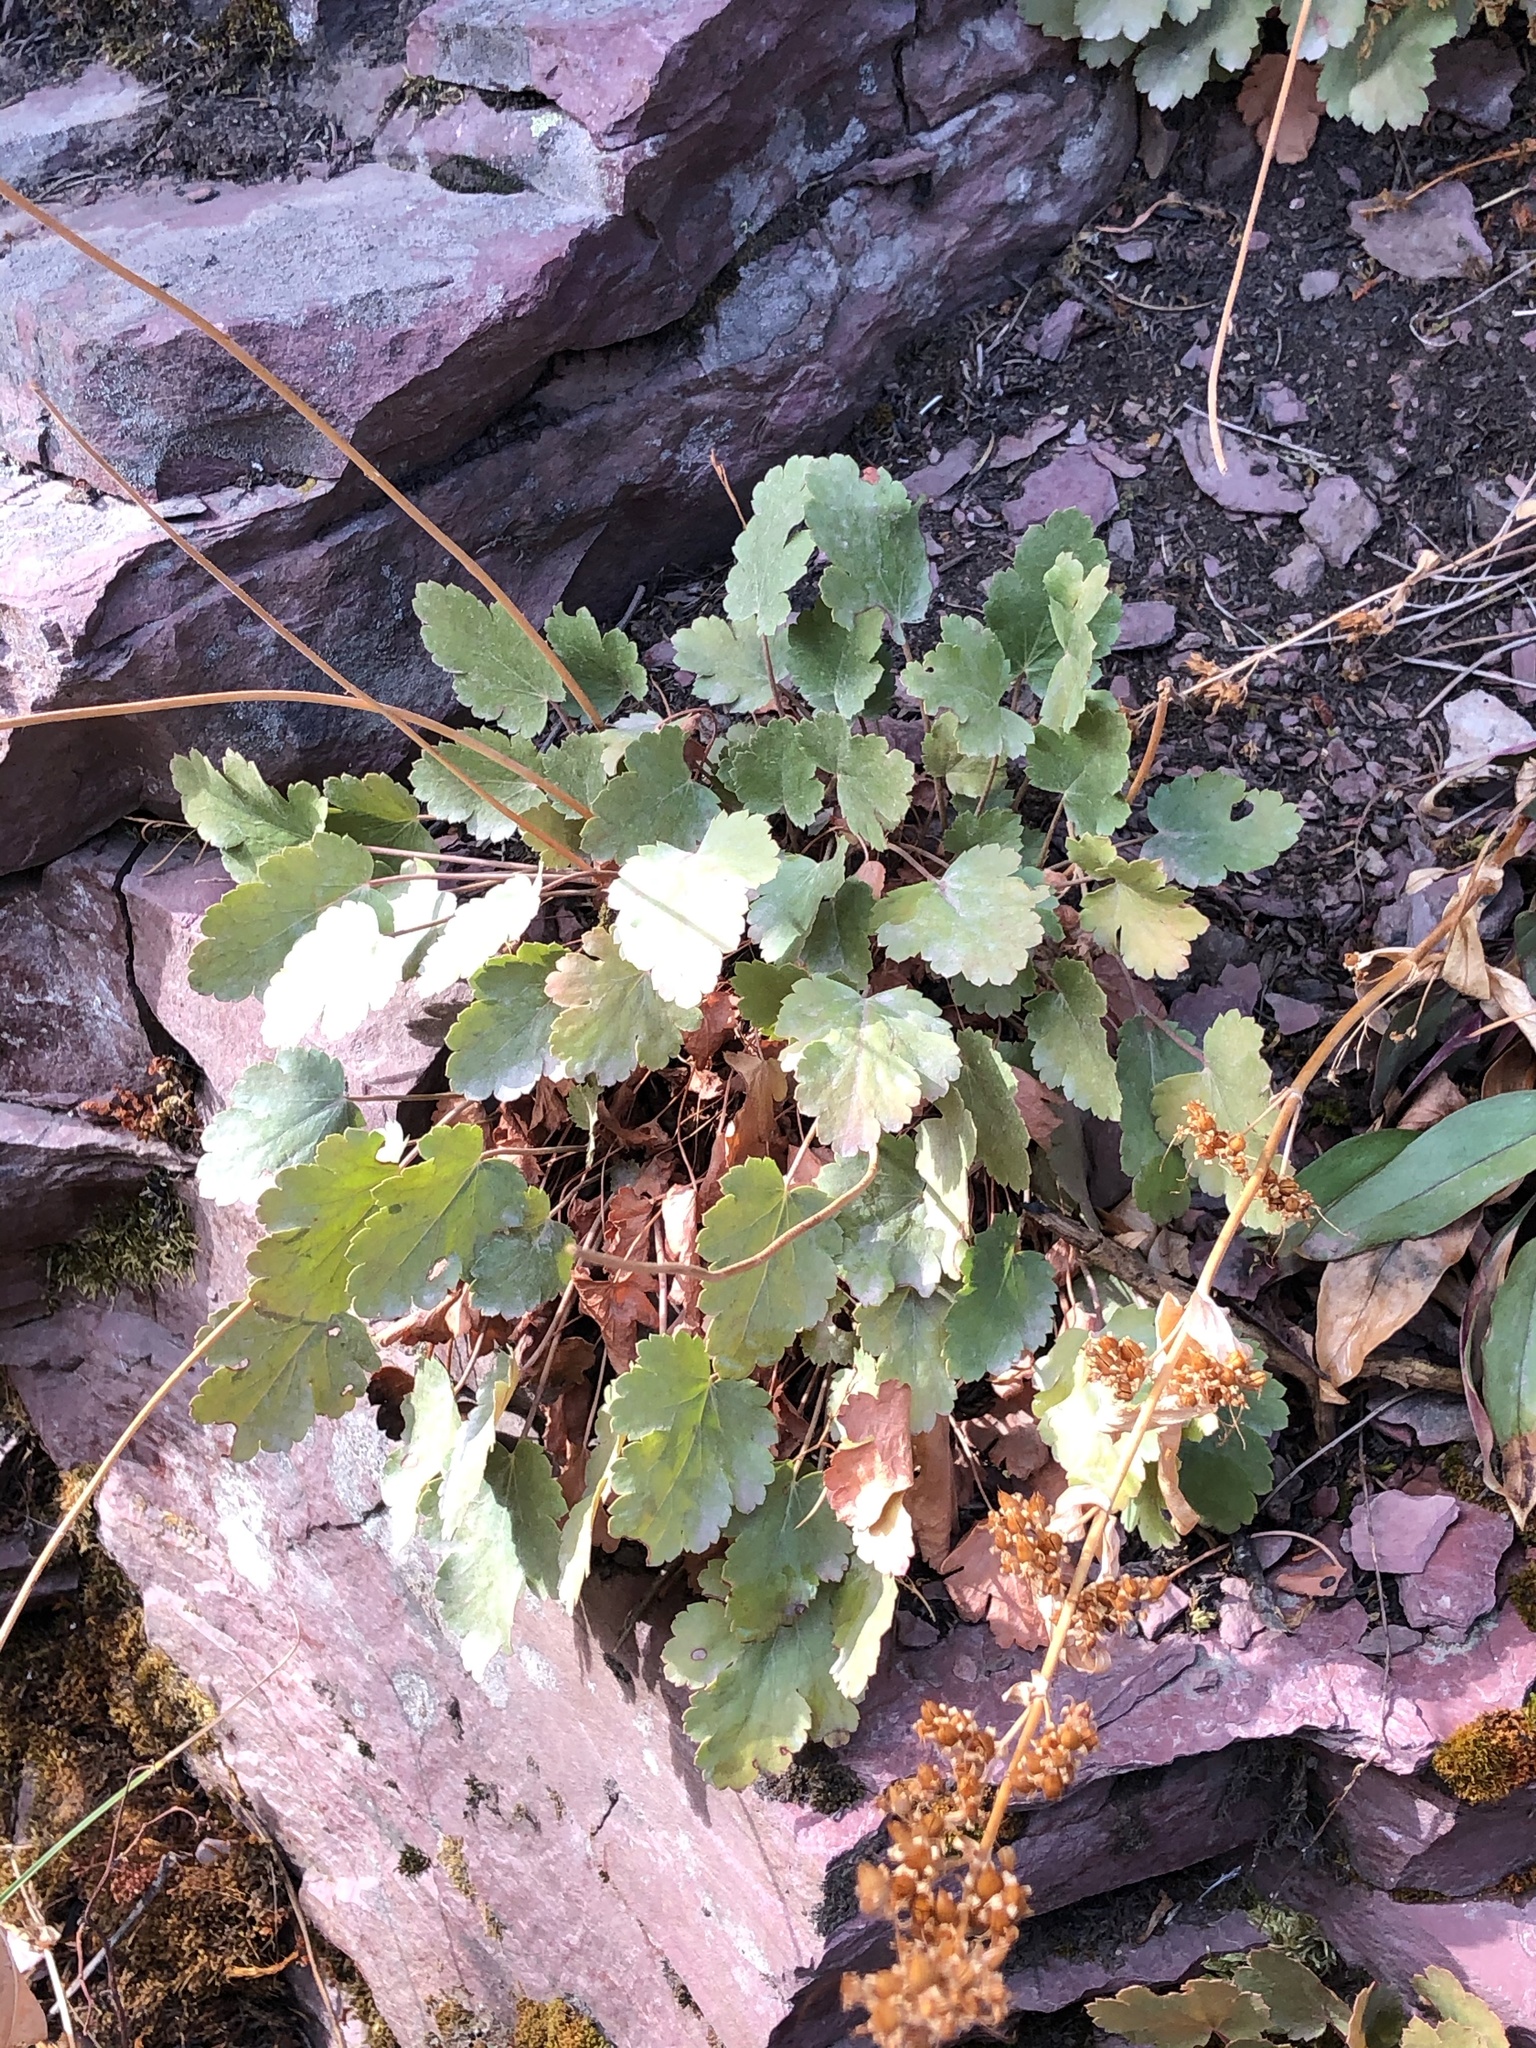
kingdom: Plantae
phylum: Tracheophyta
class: Magnoliopsida
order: Saxifragales
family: Saxifragaceae
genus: Heuchera
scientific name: Heuchera cylindrica
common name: Mat alumroot
